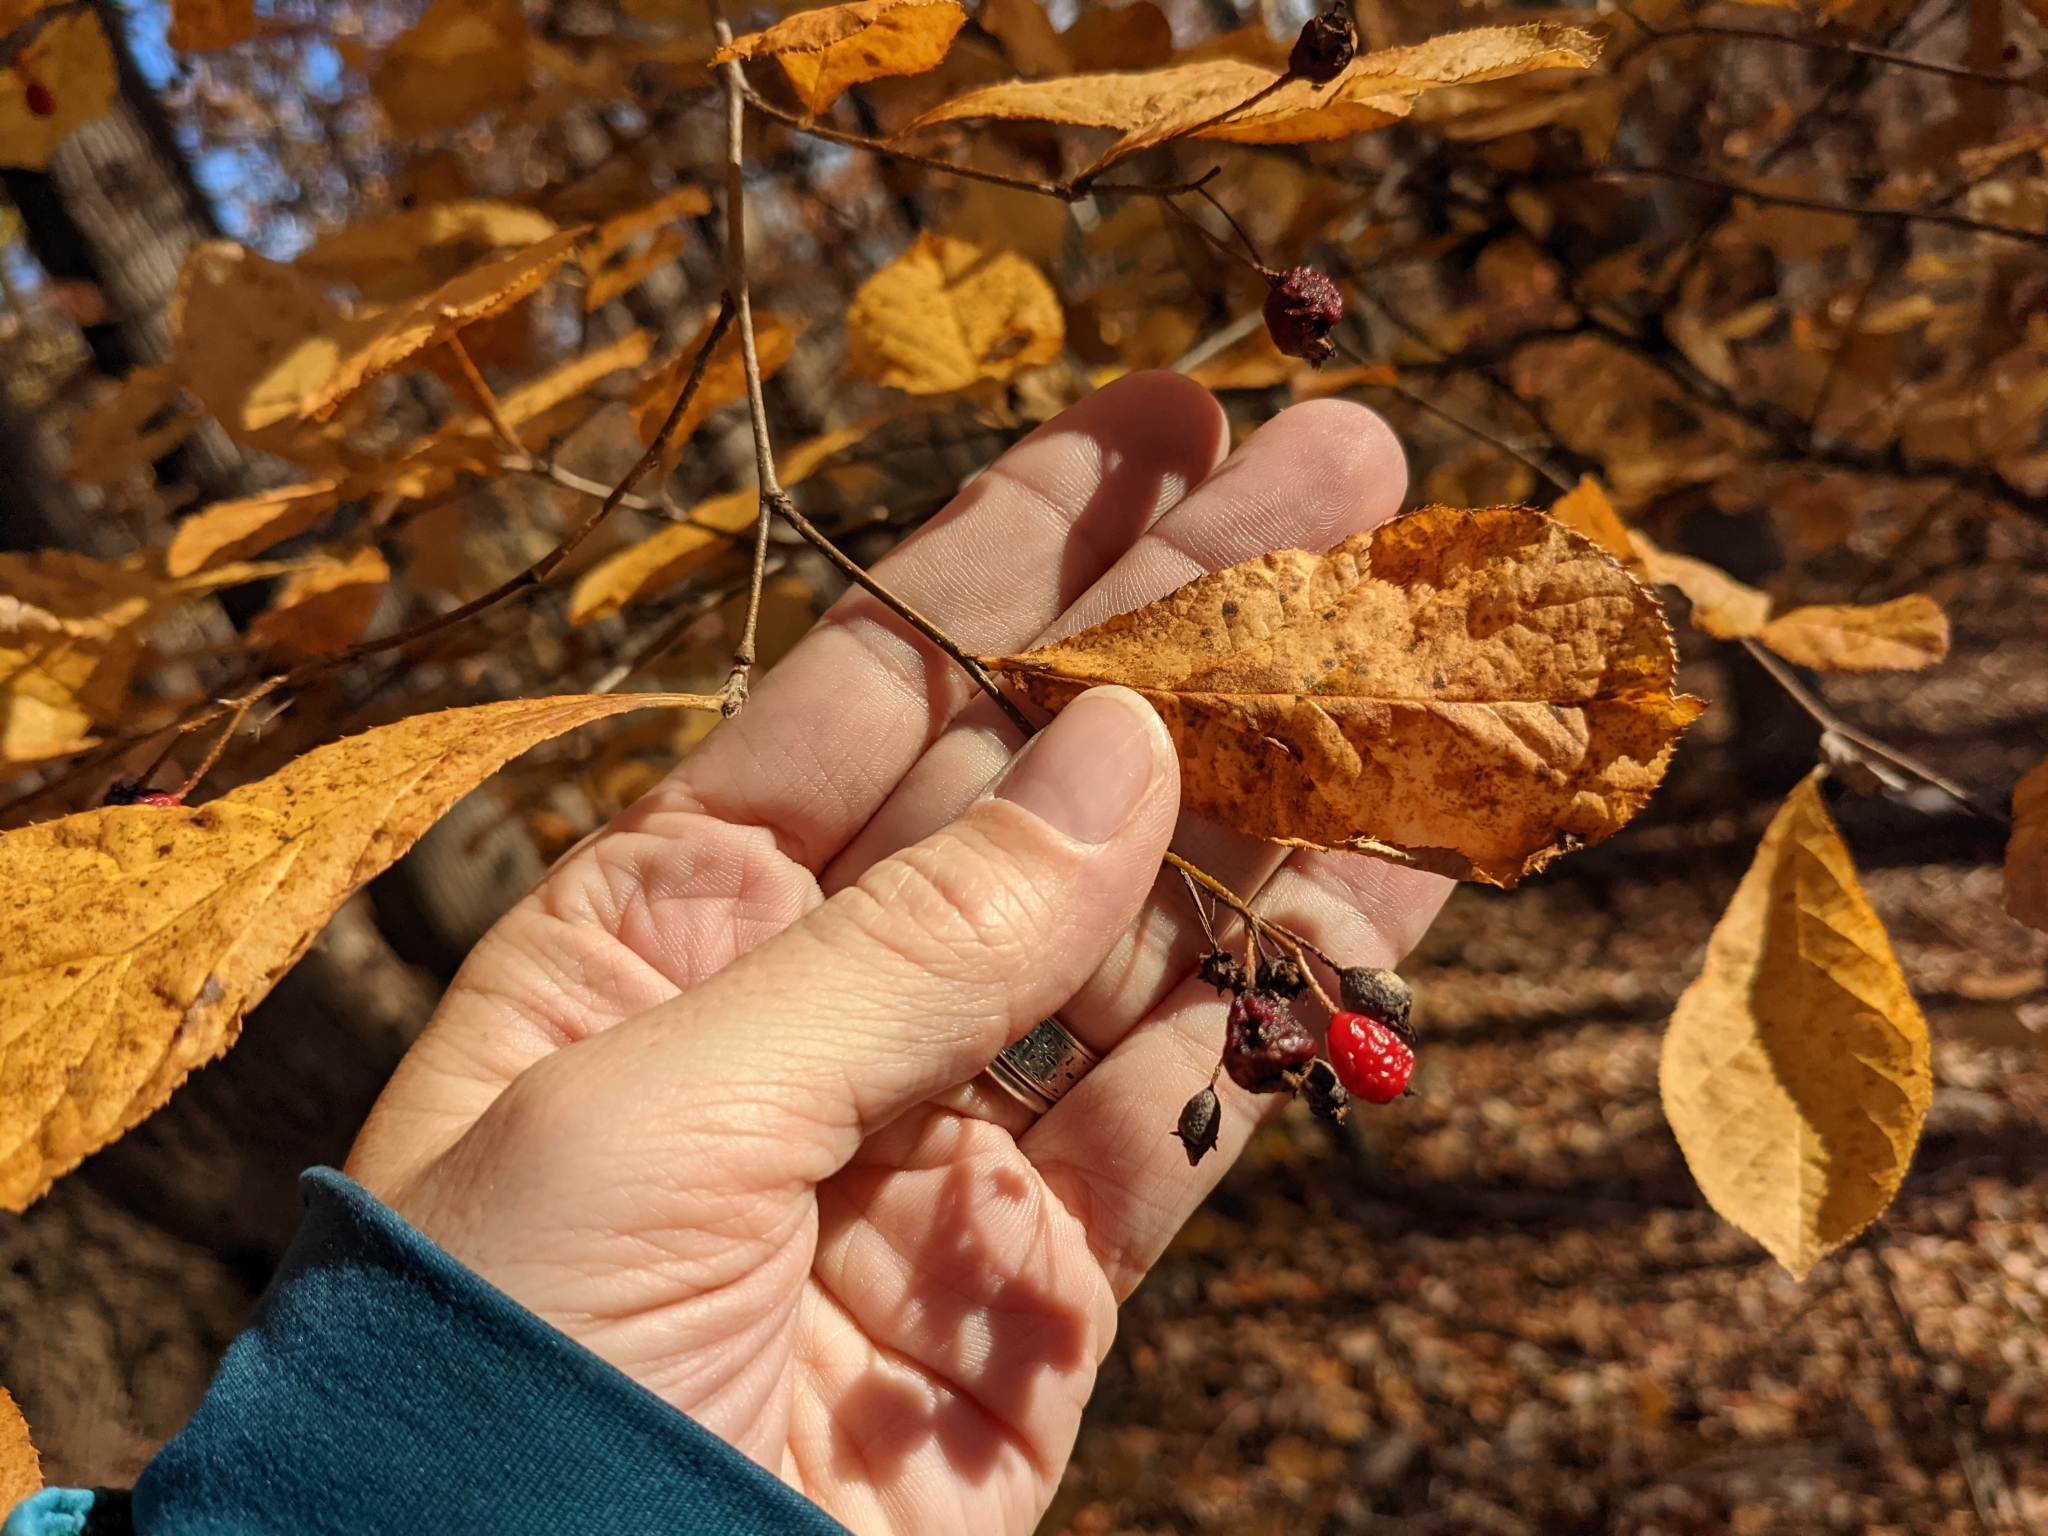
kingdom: Plantae
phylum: Tracheophyta
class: Magnoliopsida
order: Rosales
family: Rosaceae
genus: Pourthiaea
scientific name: Pourthiaea villosa
